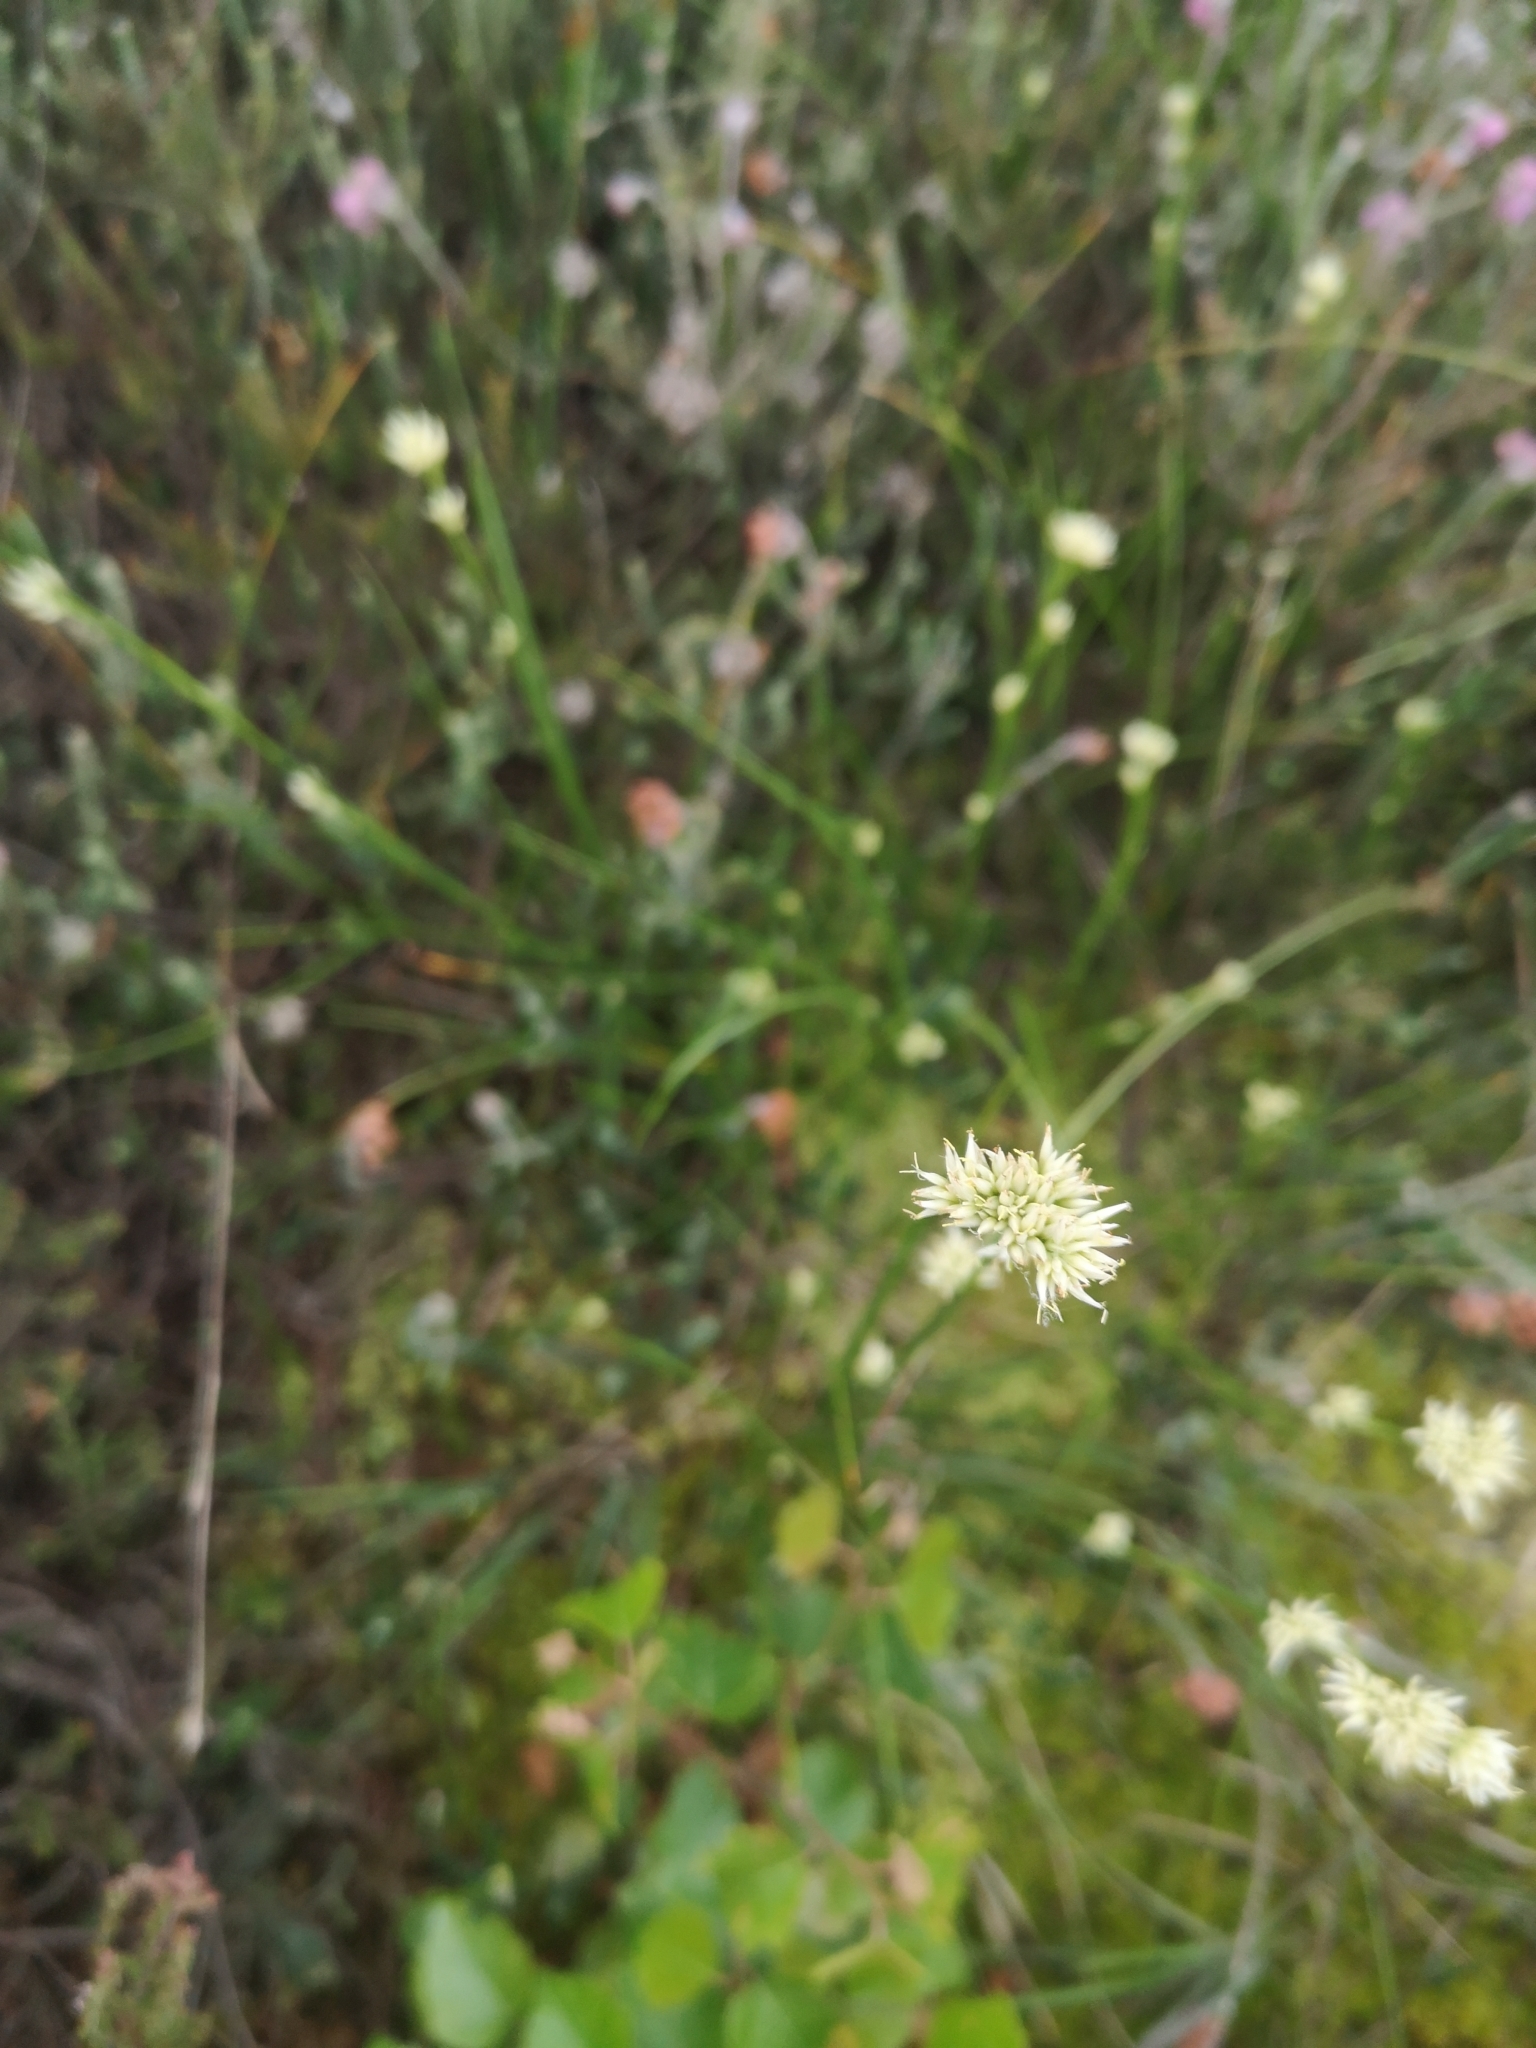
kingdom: Plantae
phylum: Tracheophyta
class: Liliopsida
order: Poales
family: Cyperaceae
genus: Rhynchospora
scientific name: Rhynchospora alba
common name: White beak-sedge
